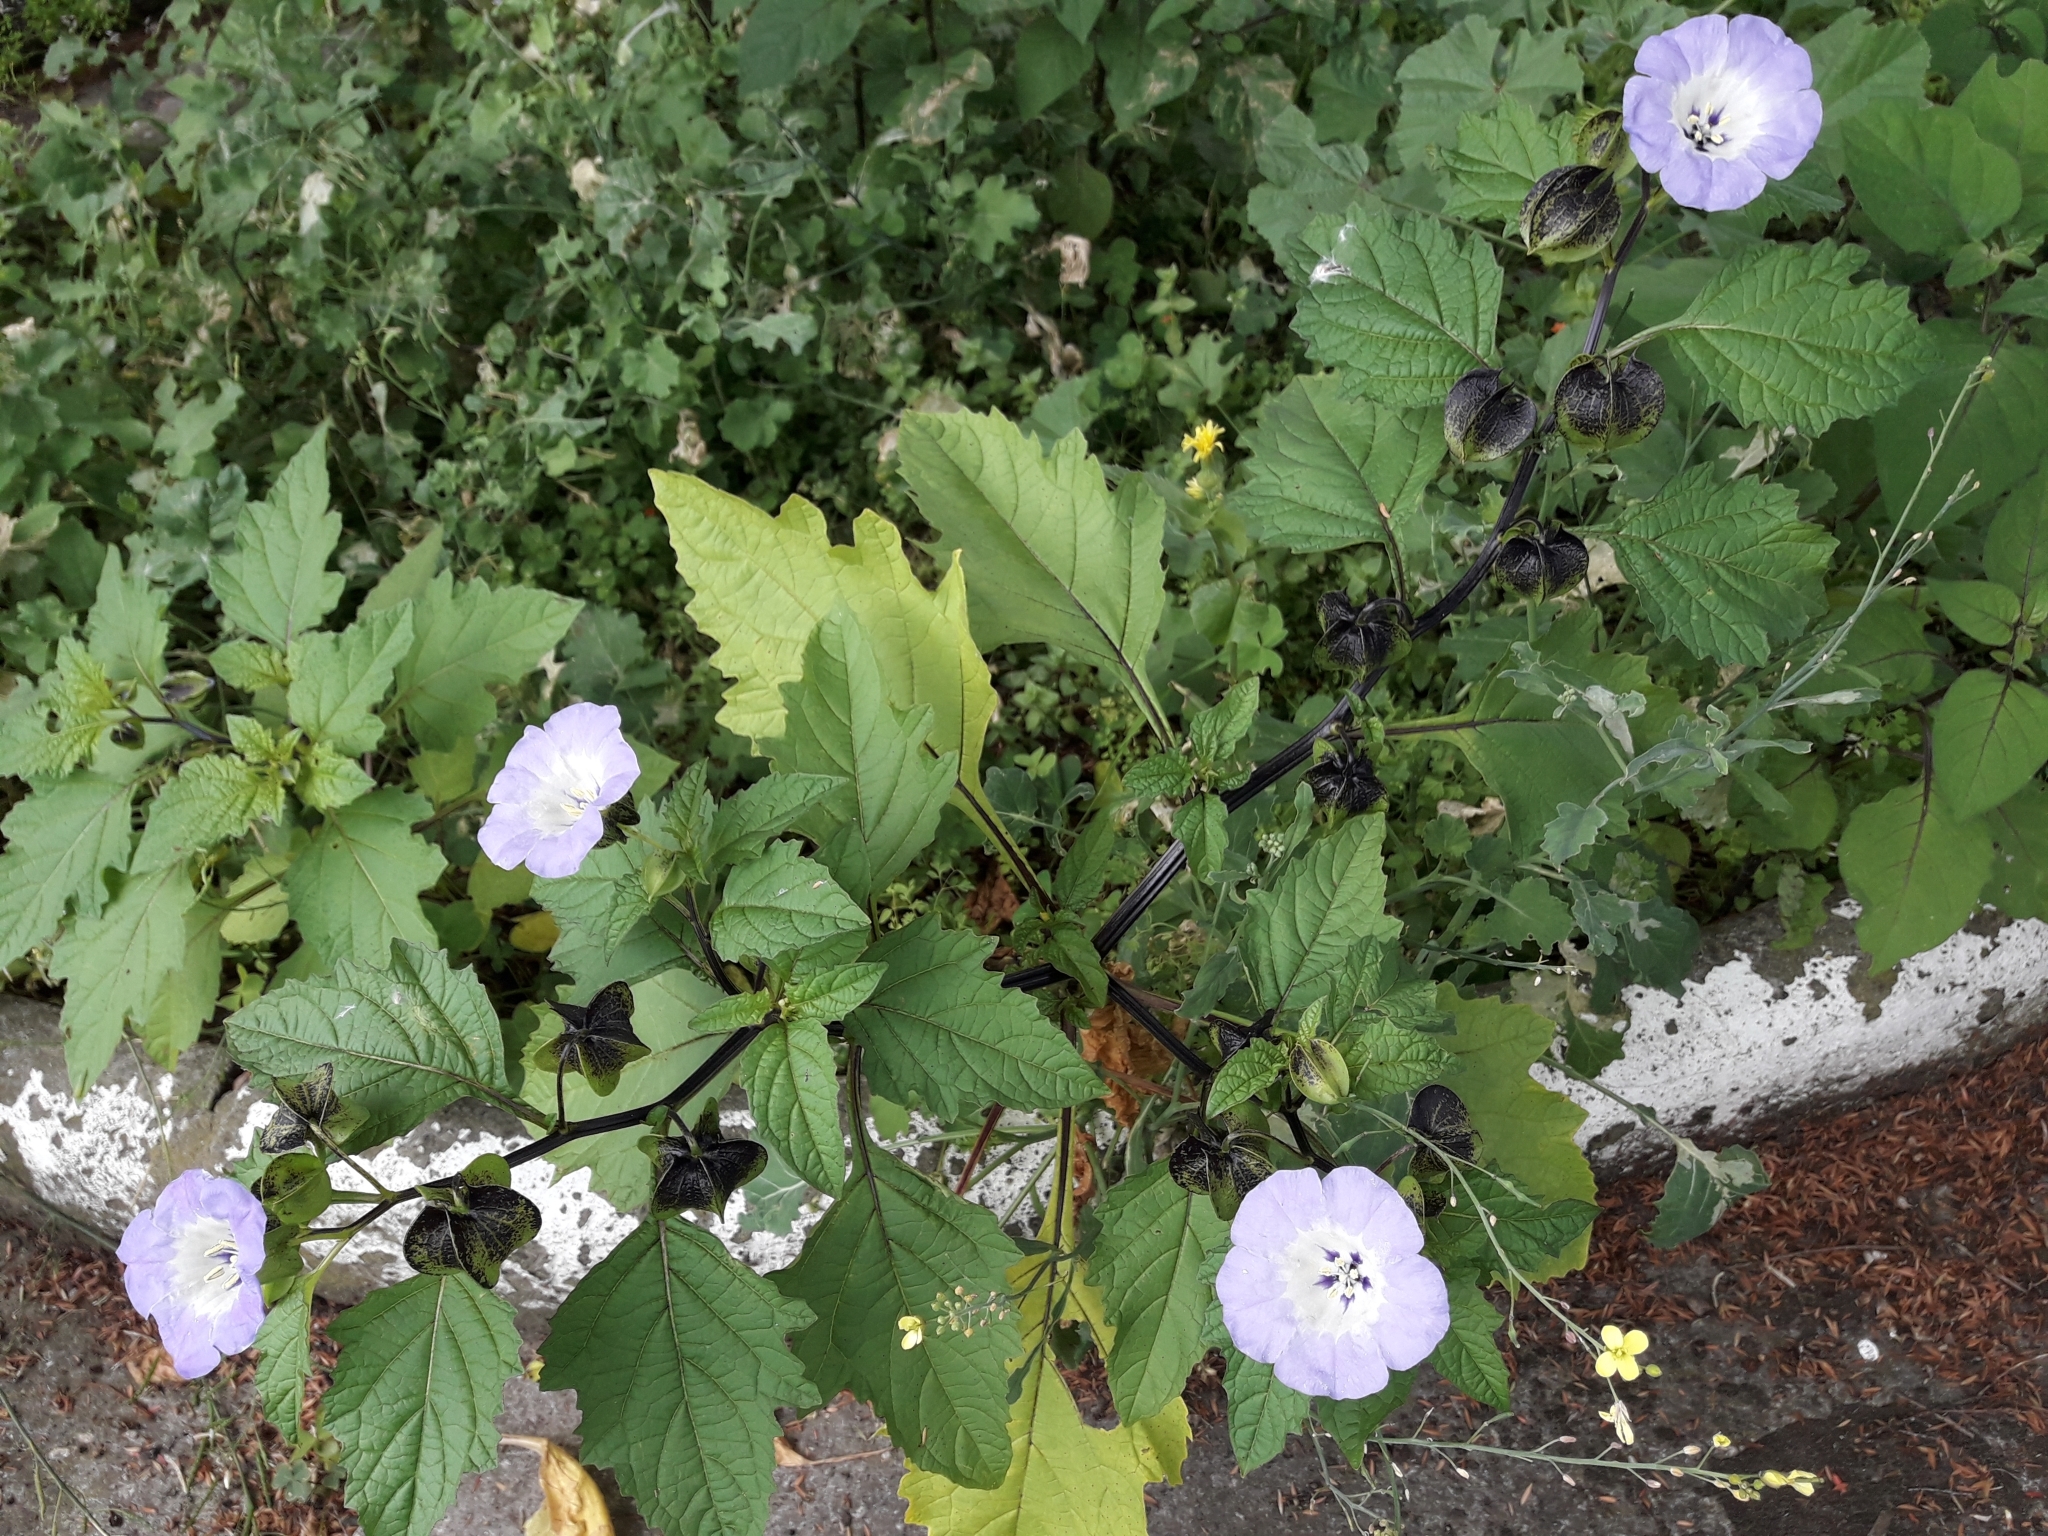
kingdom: Plantae
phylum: Tracheophyta
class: Magnoliopsida
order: Solanales
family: Solanaceae
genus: Nicandra
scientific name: Nicandra physalodes
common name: Apple-of-peru
